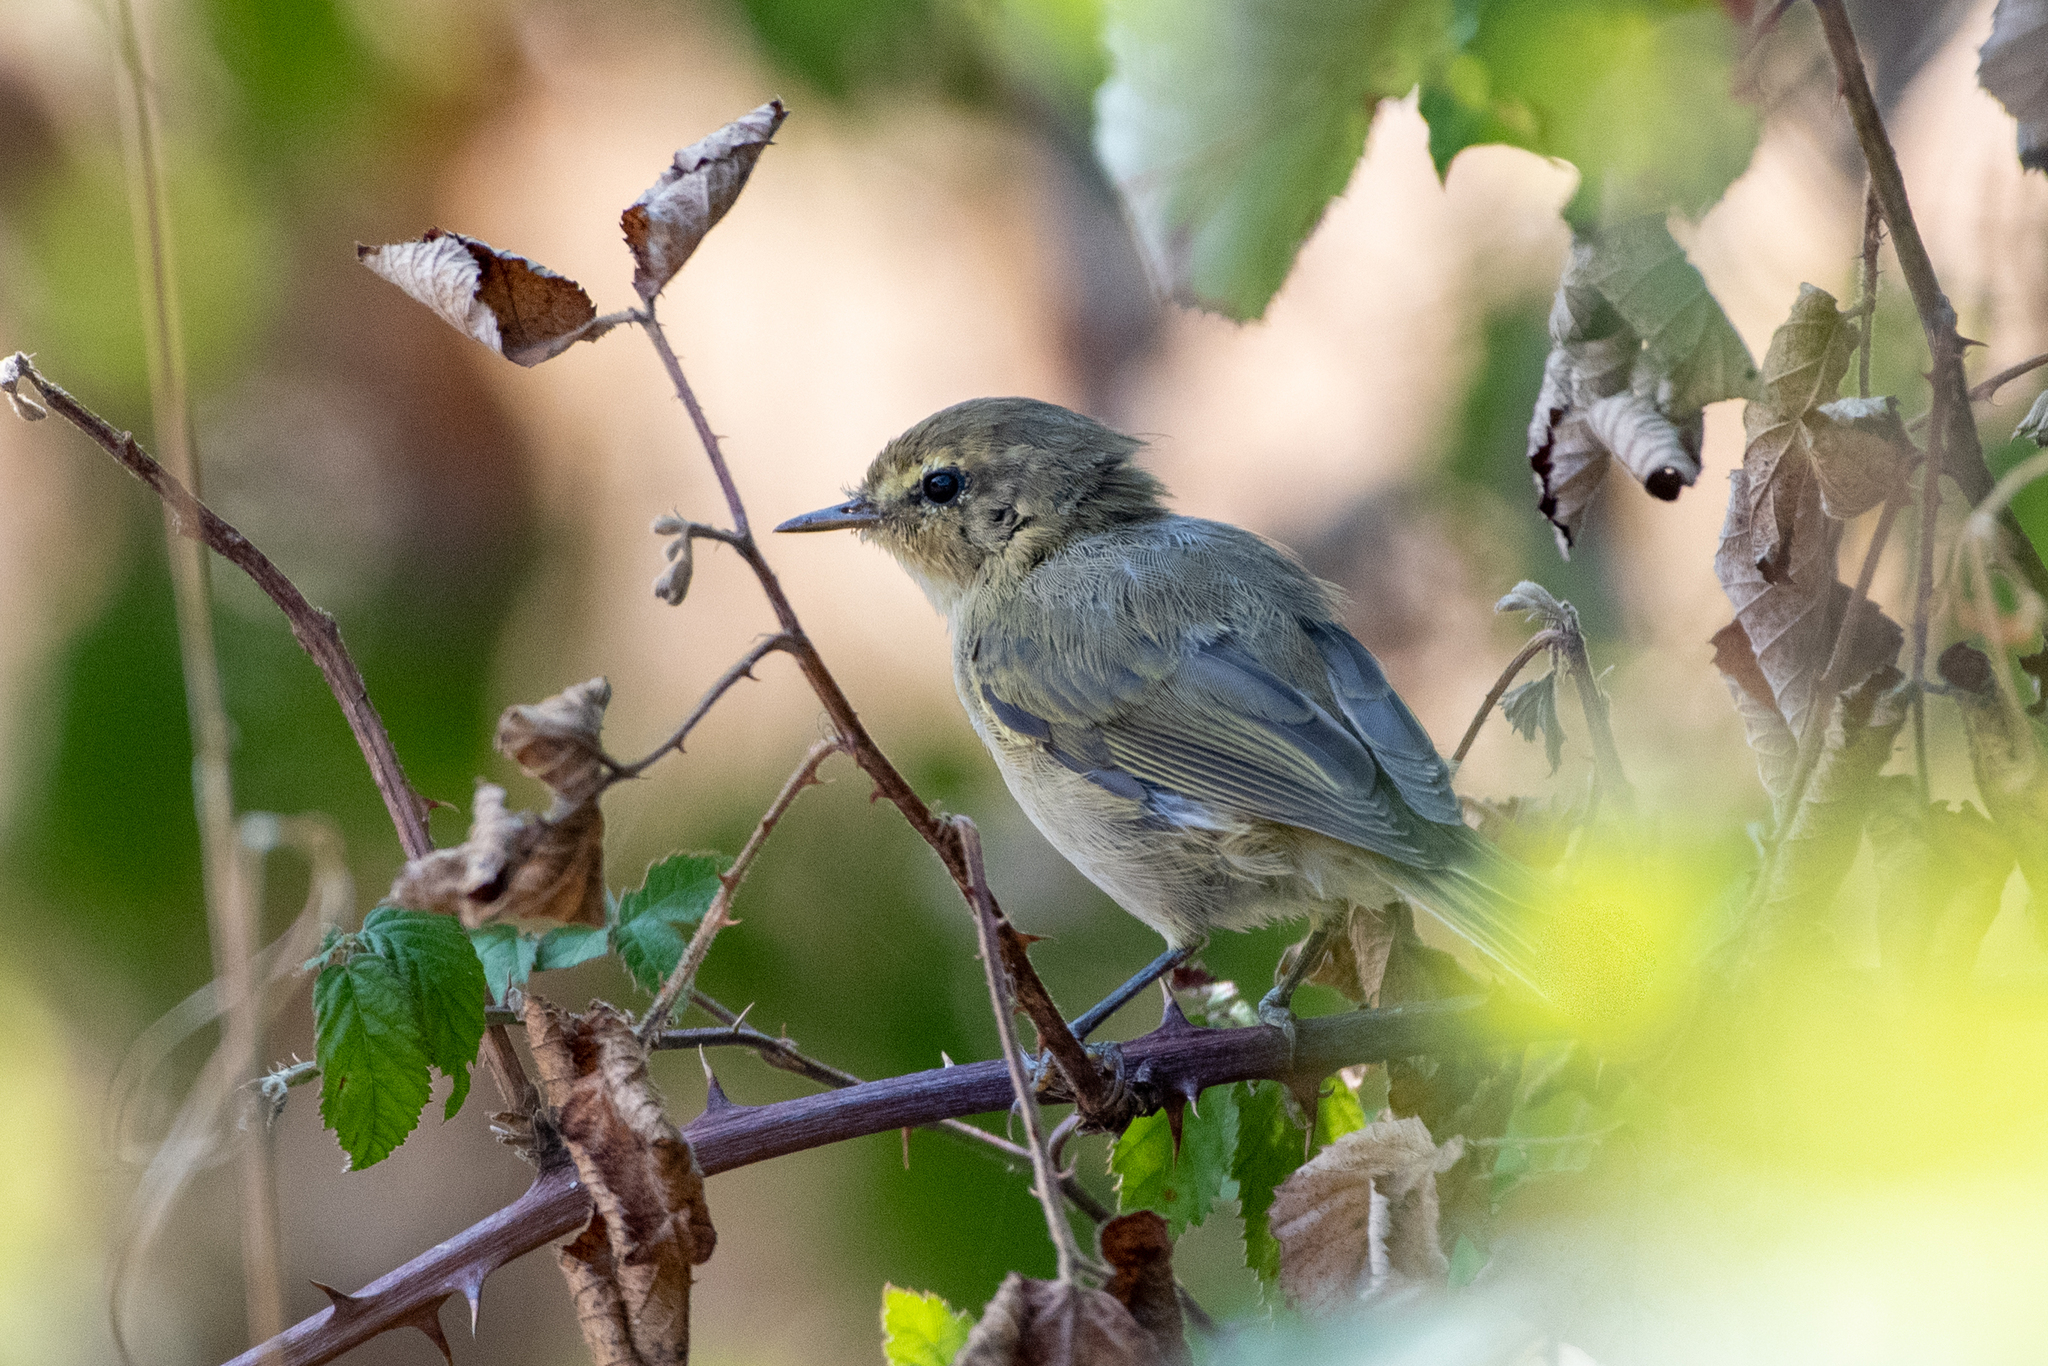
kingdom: Animalia
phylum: Chordata
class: Aves
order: Passeriformes
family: Phylloscopidae
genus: Phylloscopus
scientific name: Phylloscopus collybita
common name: Common chiffchaff
